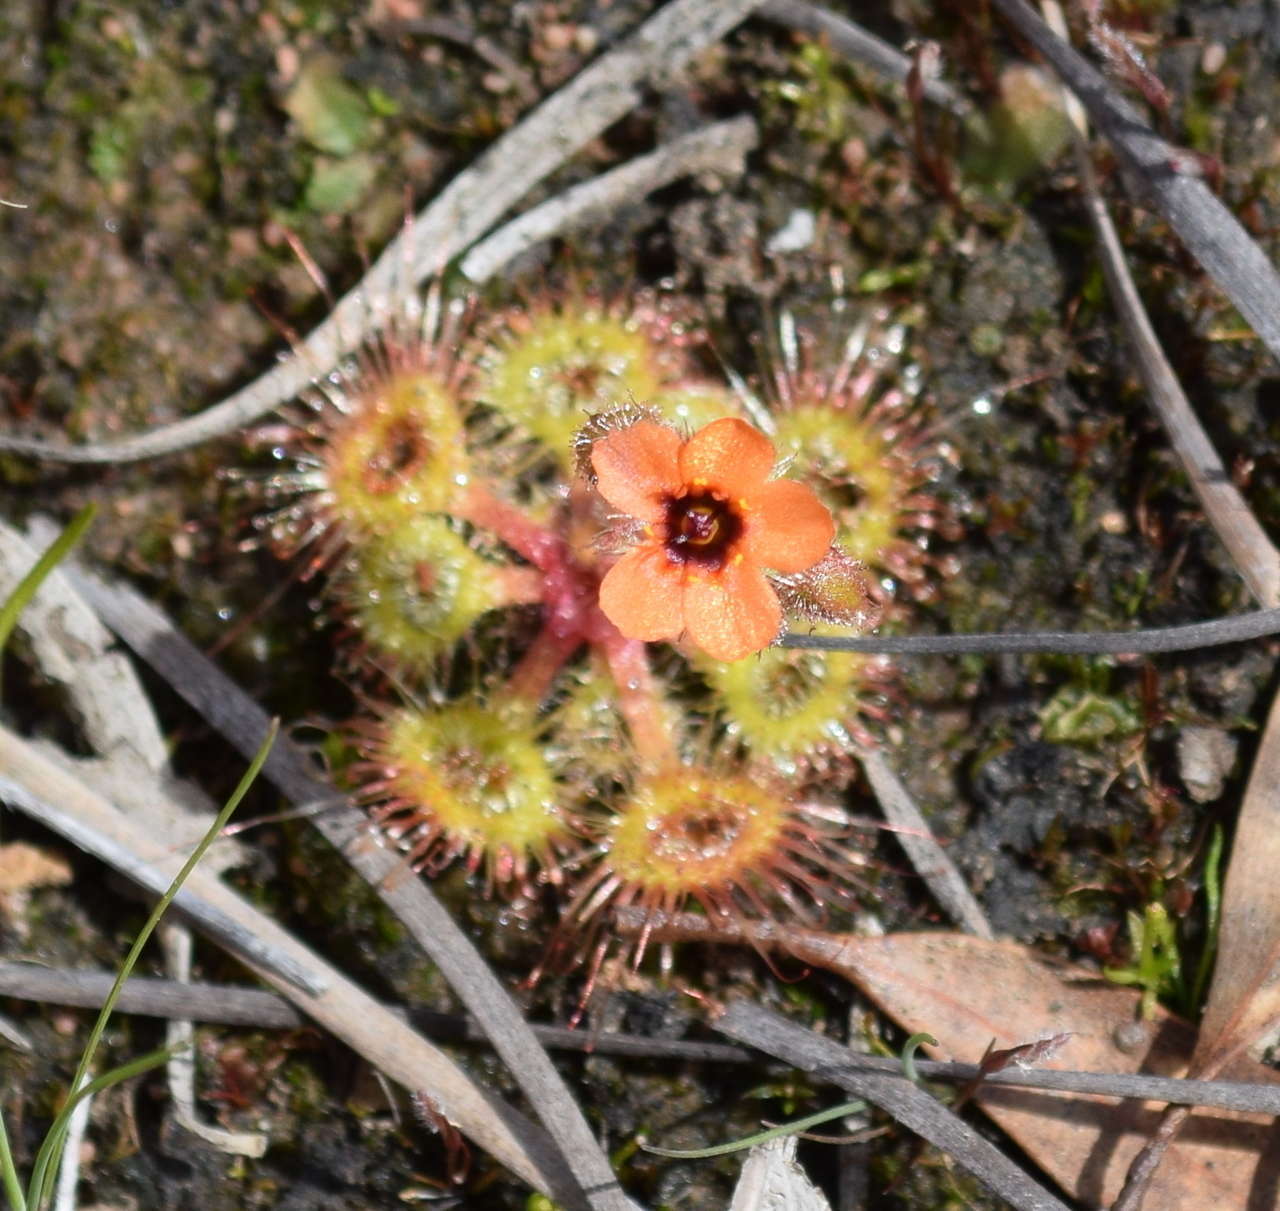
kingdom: Plantae
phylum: Tracheophyta
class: Magnoliopsida
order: Caryophyllales
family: Droseraceae
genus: Drosera
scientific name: Drosera glanduligera
